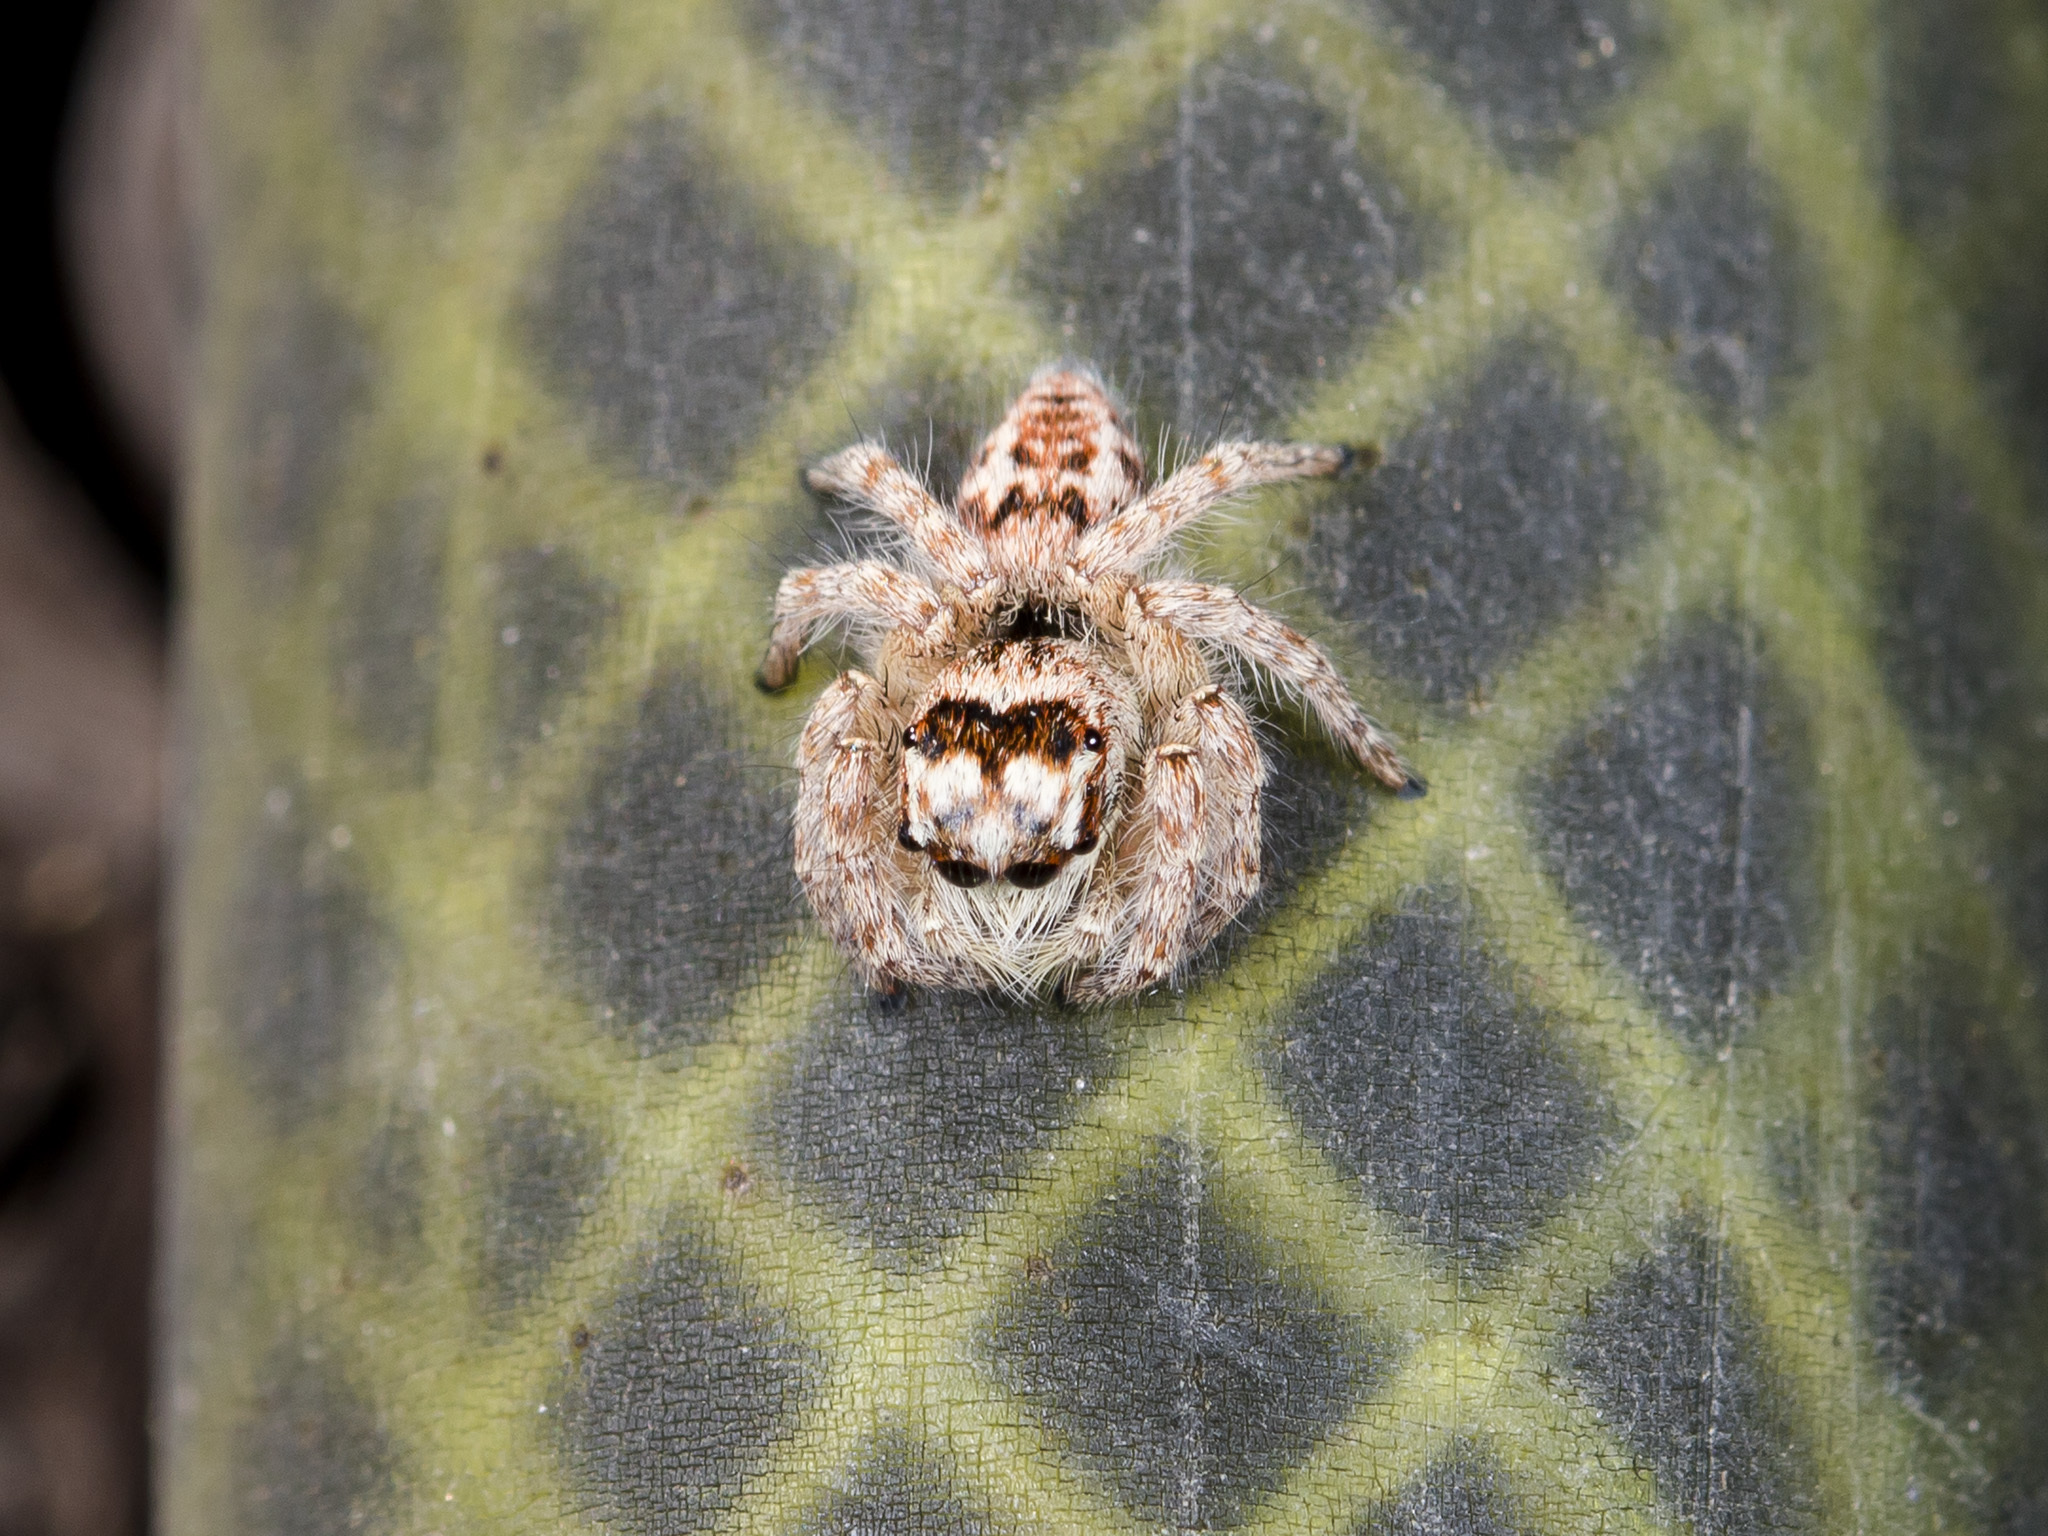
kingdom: Animalia
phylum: Arthropoda
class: Arachnida
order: Araneae
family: Salticidae
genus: Philaeus
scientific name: Philaeus chrysops
